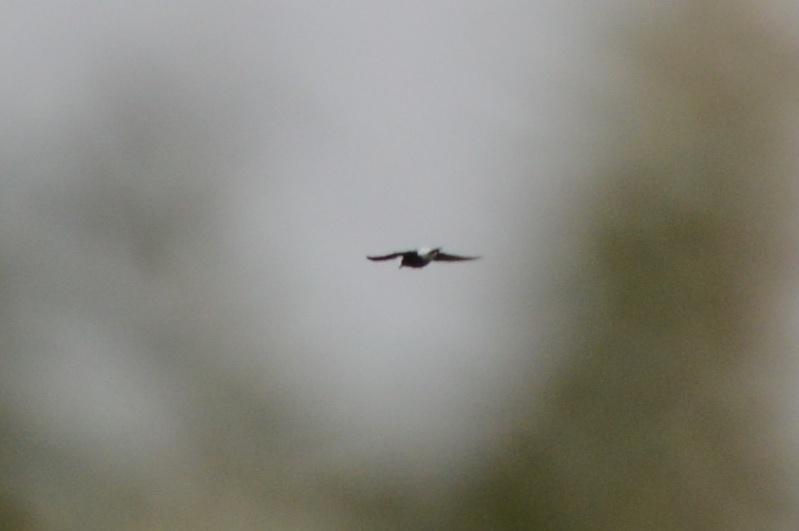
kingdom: Animalia
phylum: Chordata
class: Aves
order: Passeriformes
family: Cracticidae
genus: Gymnorhina
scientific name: Gymnorhina tibicen
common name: Australian magpie
